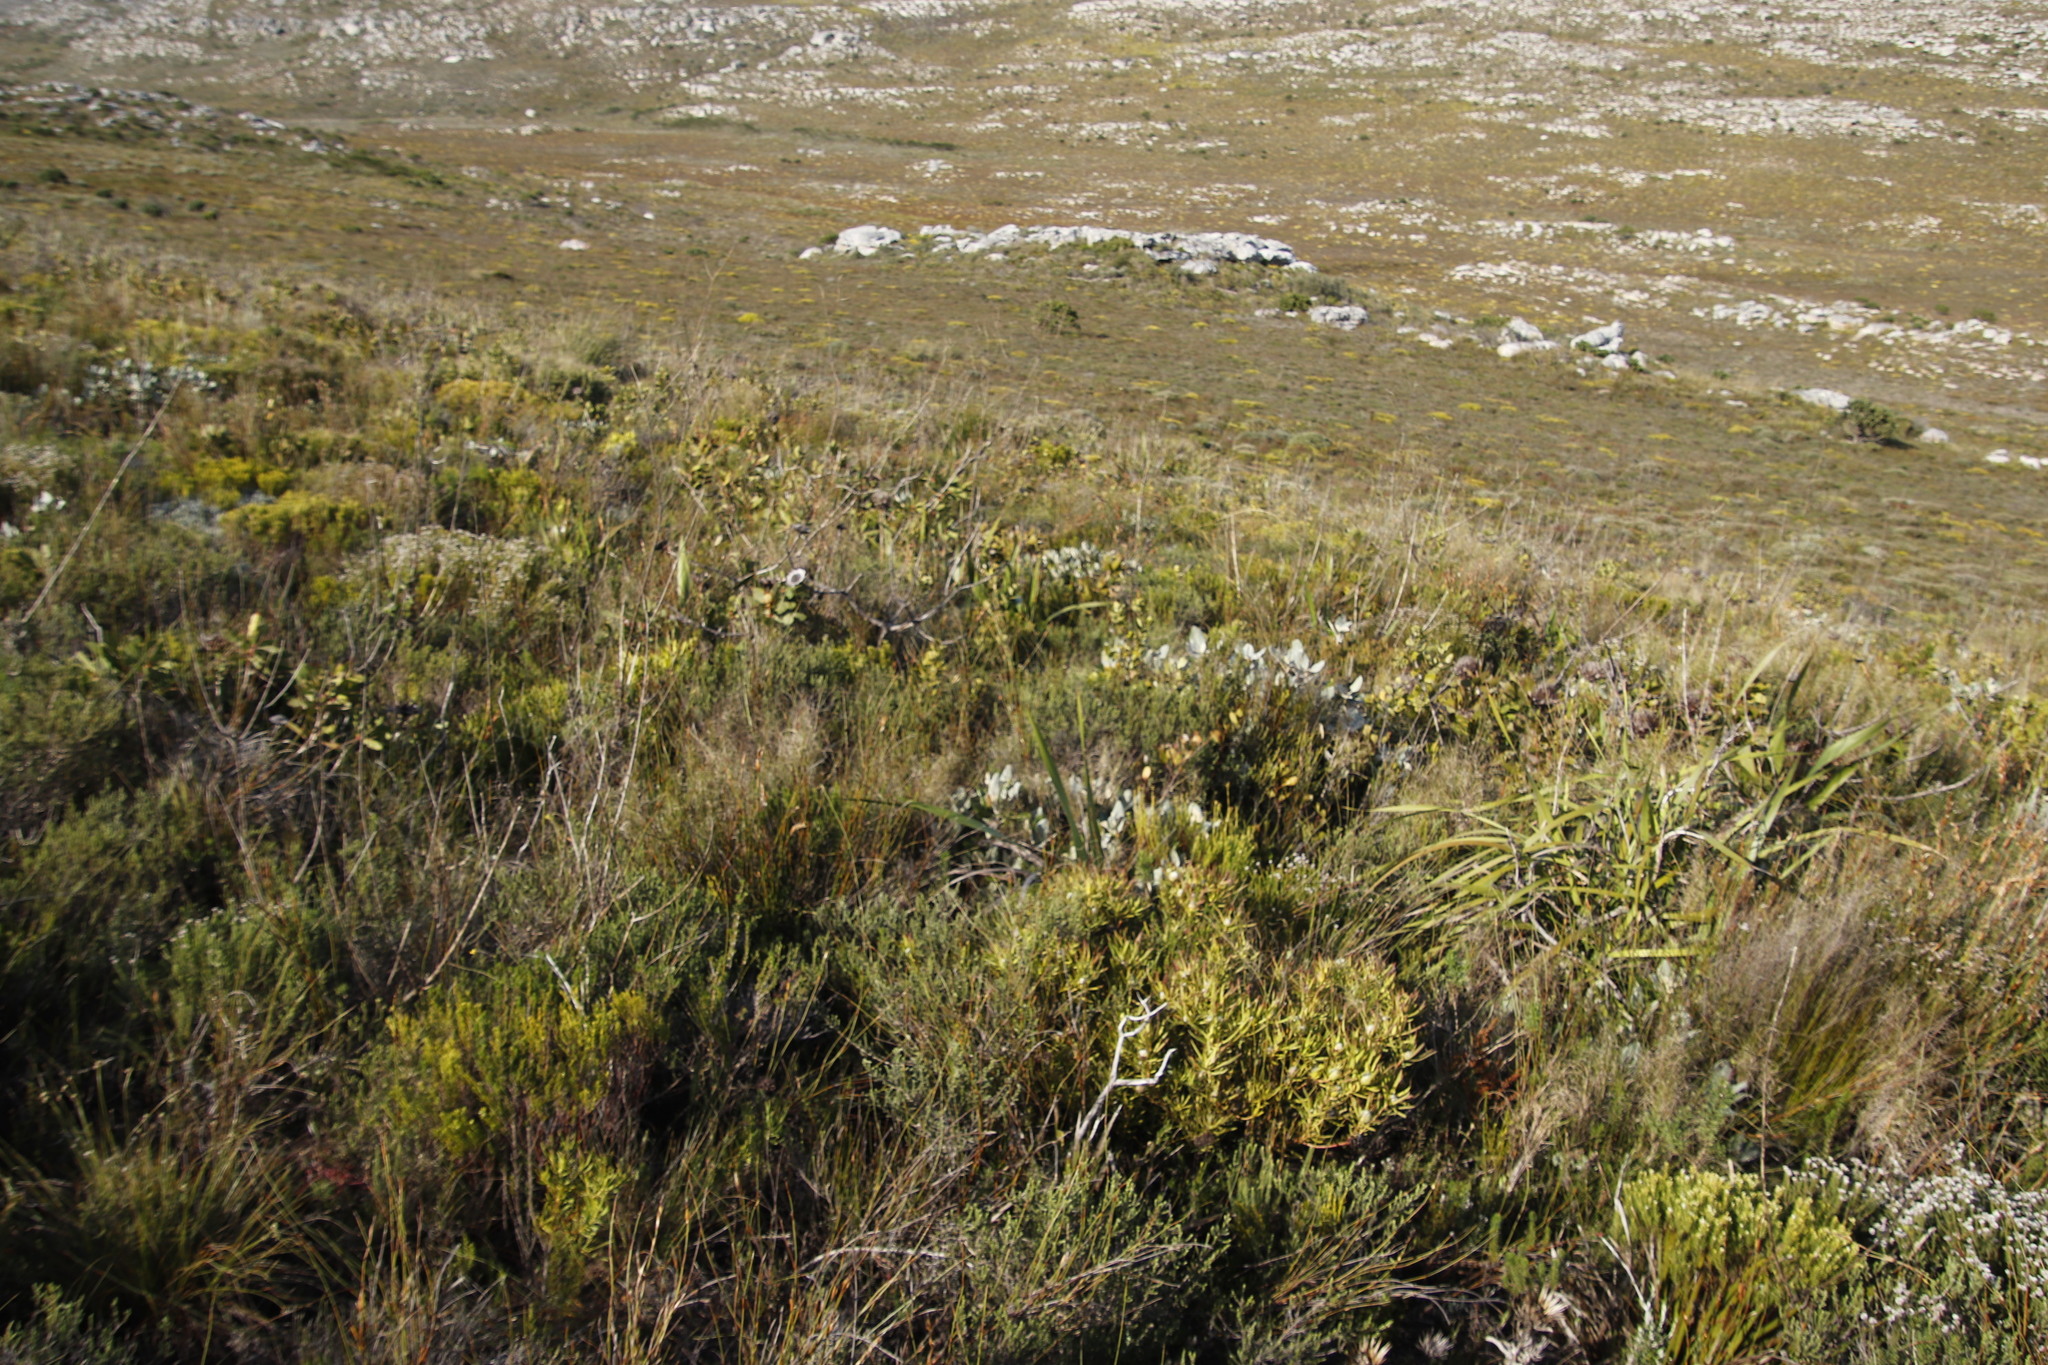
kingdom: Plantae
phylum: Tracheophyta
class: Magnoliopsida
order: Proteales
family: Proteaceae
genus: Protea
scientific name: Protea nitida
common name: Tree protea
